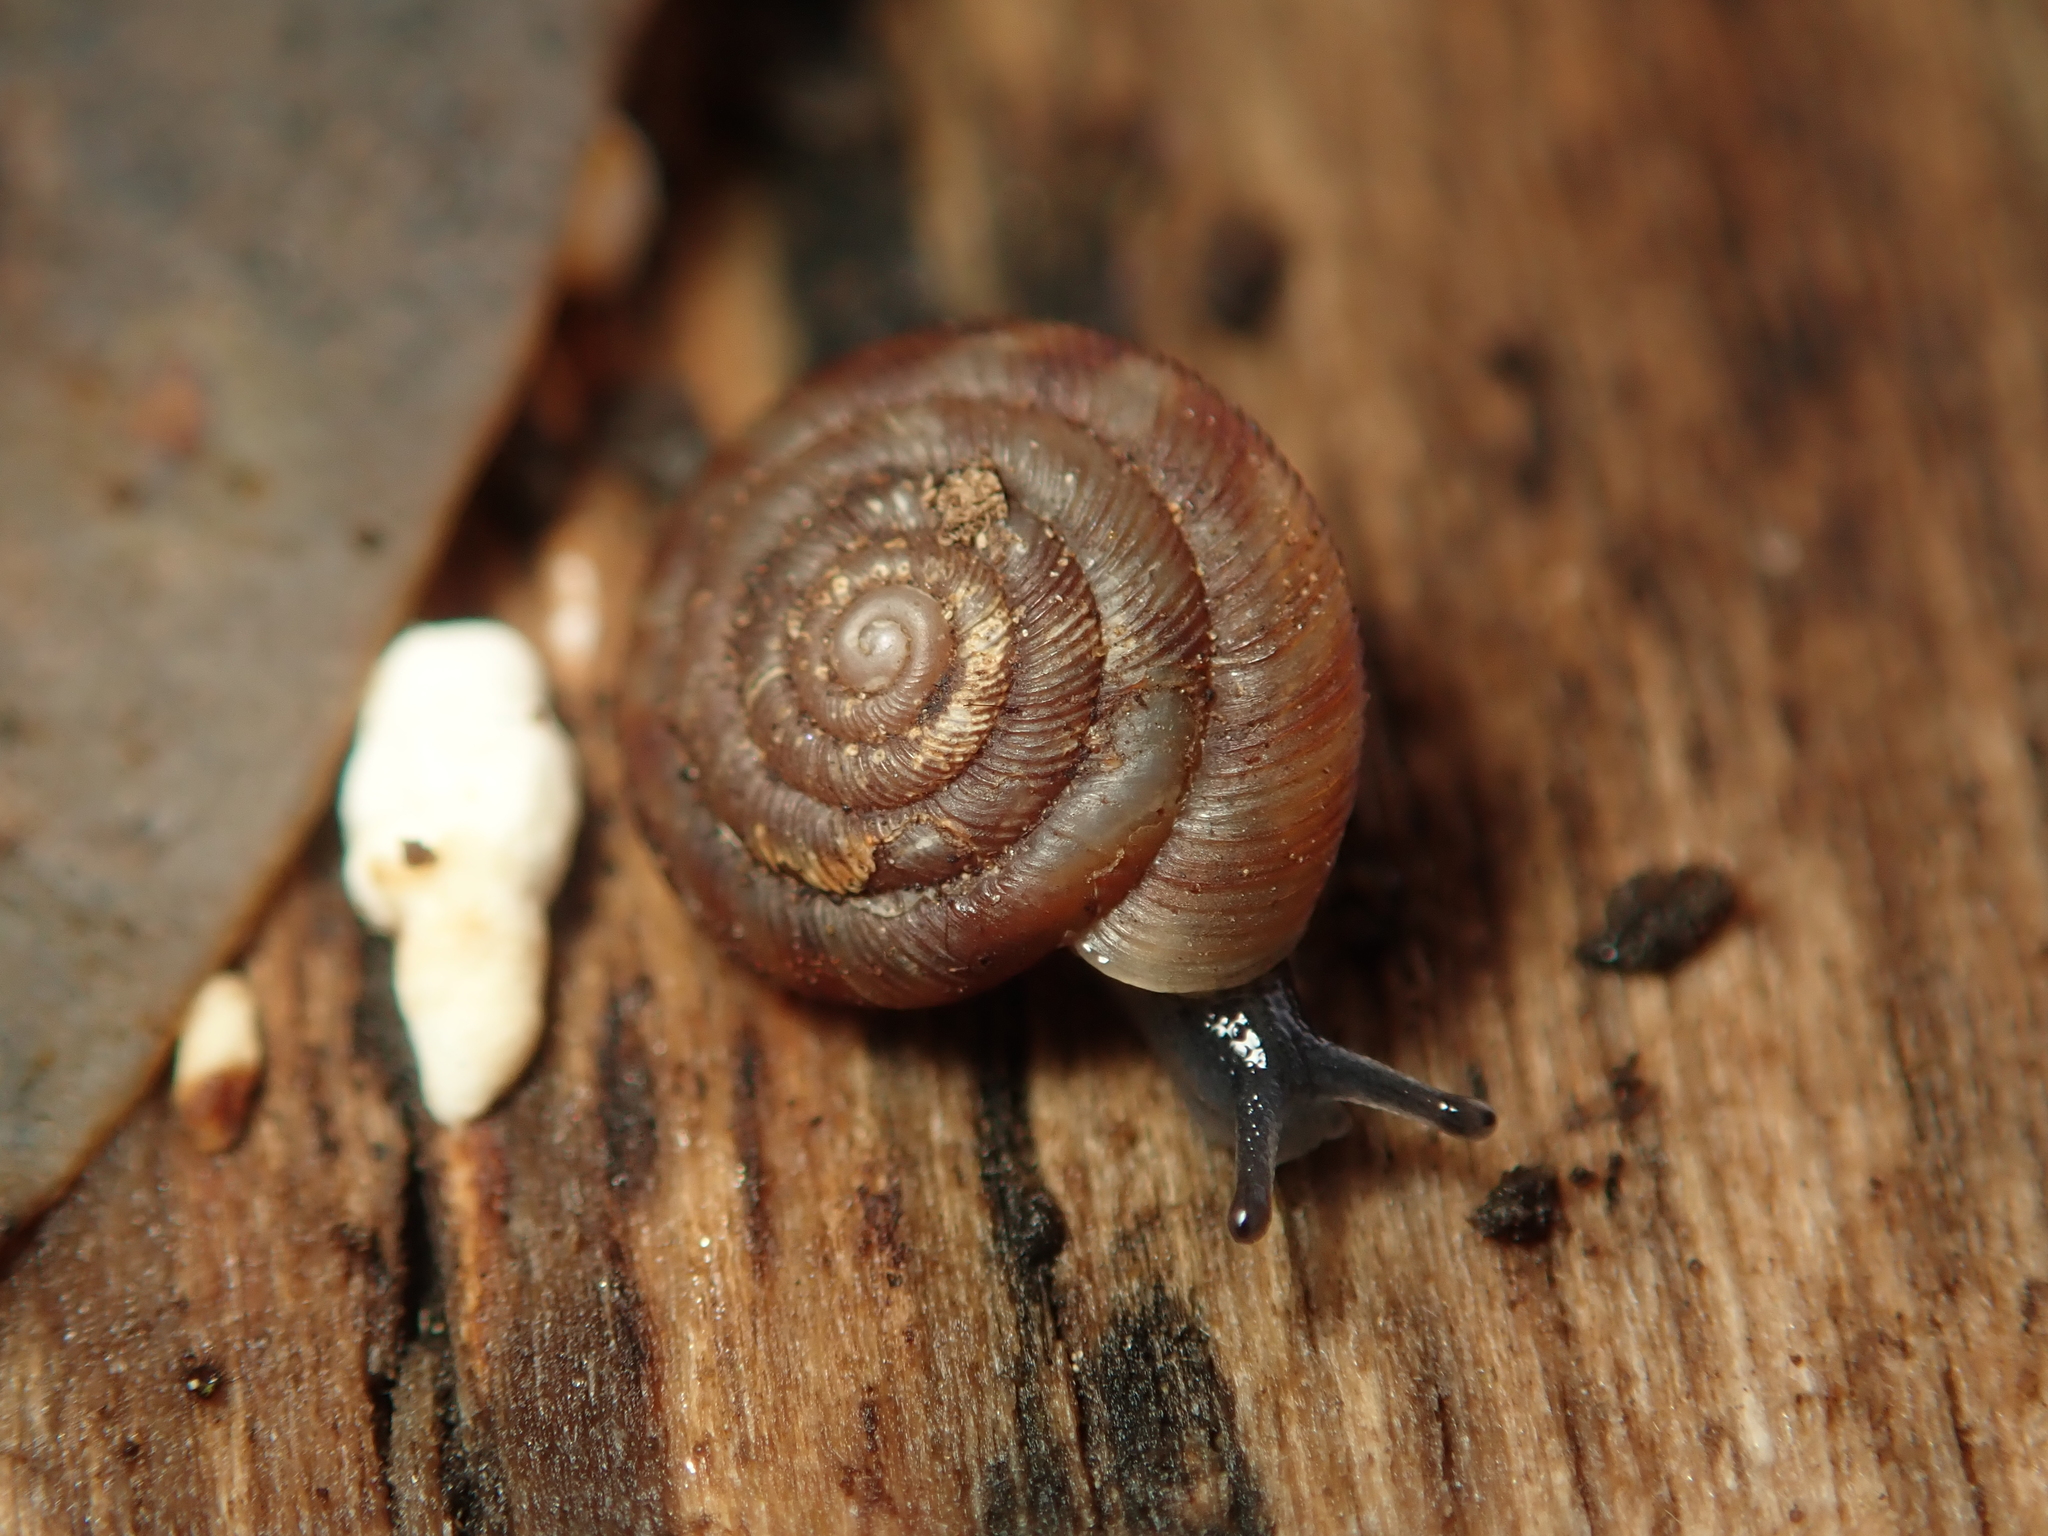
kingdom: Animalia
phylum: Mollusca
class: Gastropoda
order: Stylommatophora
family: Discidae
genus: Discus
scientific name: Discus rotundatus
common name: Rounded snail
